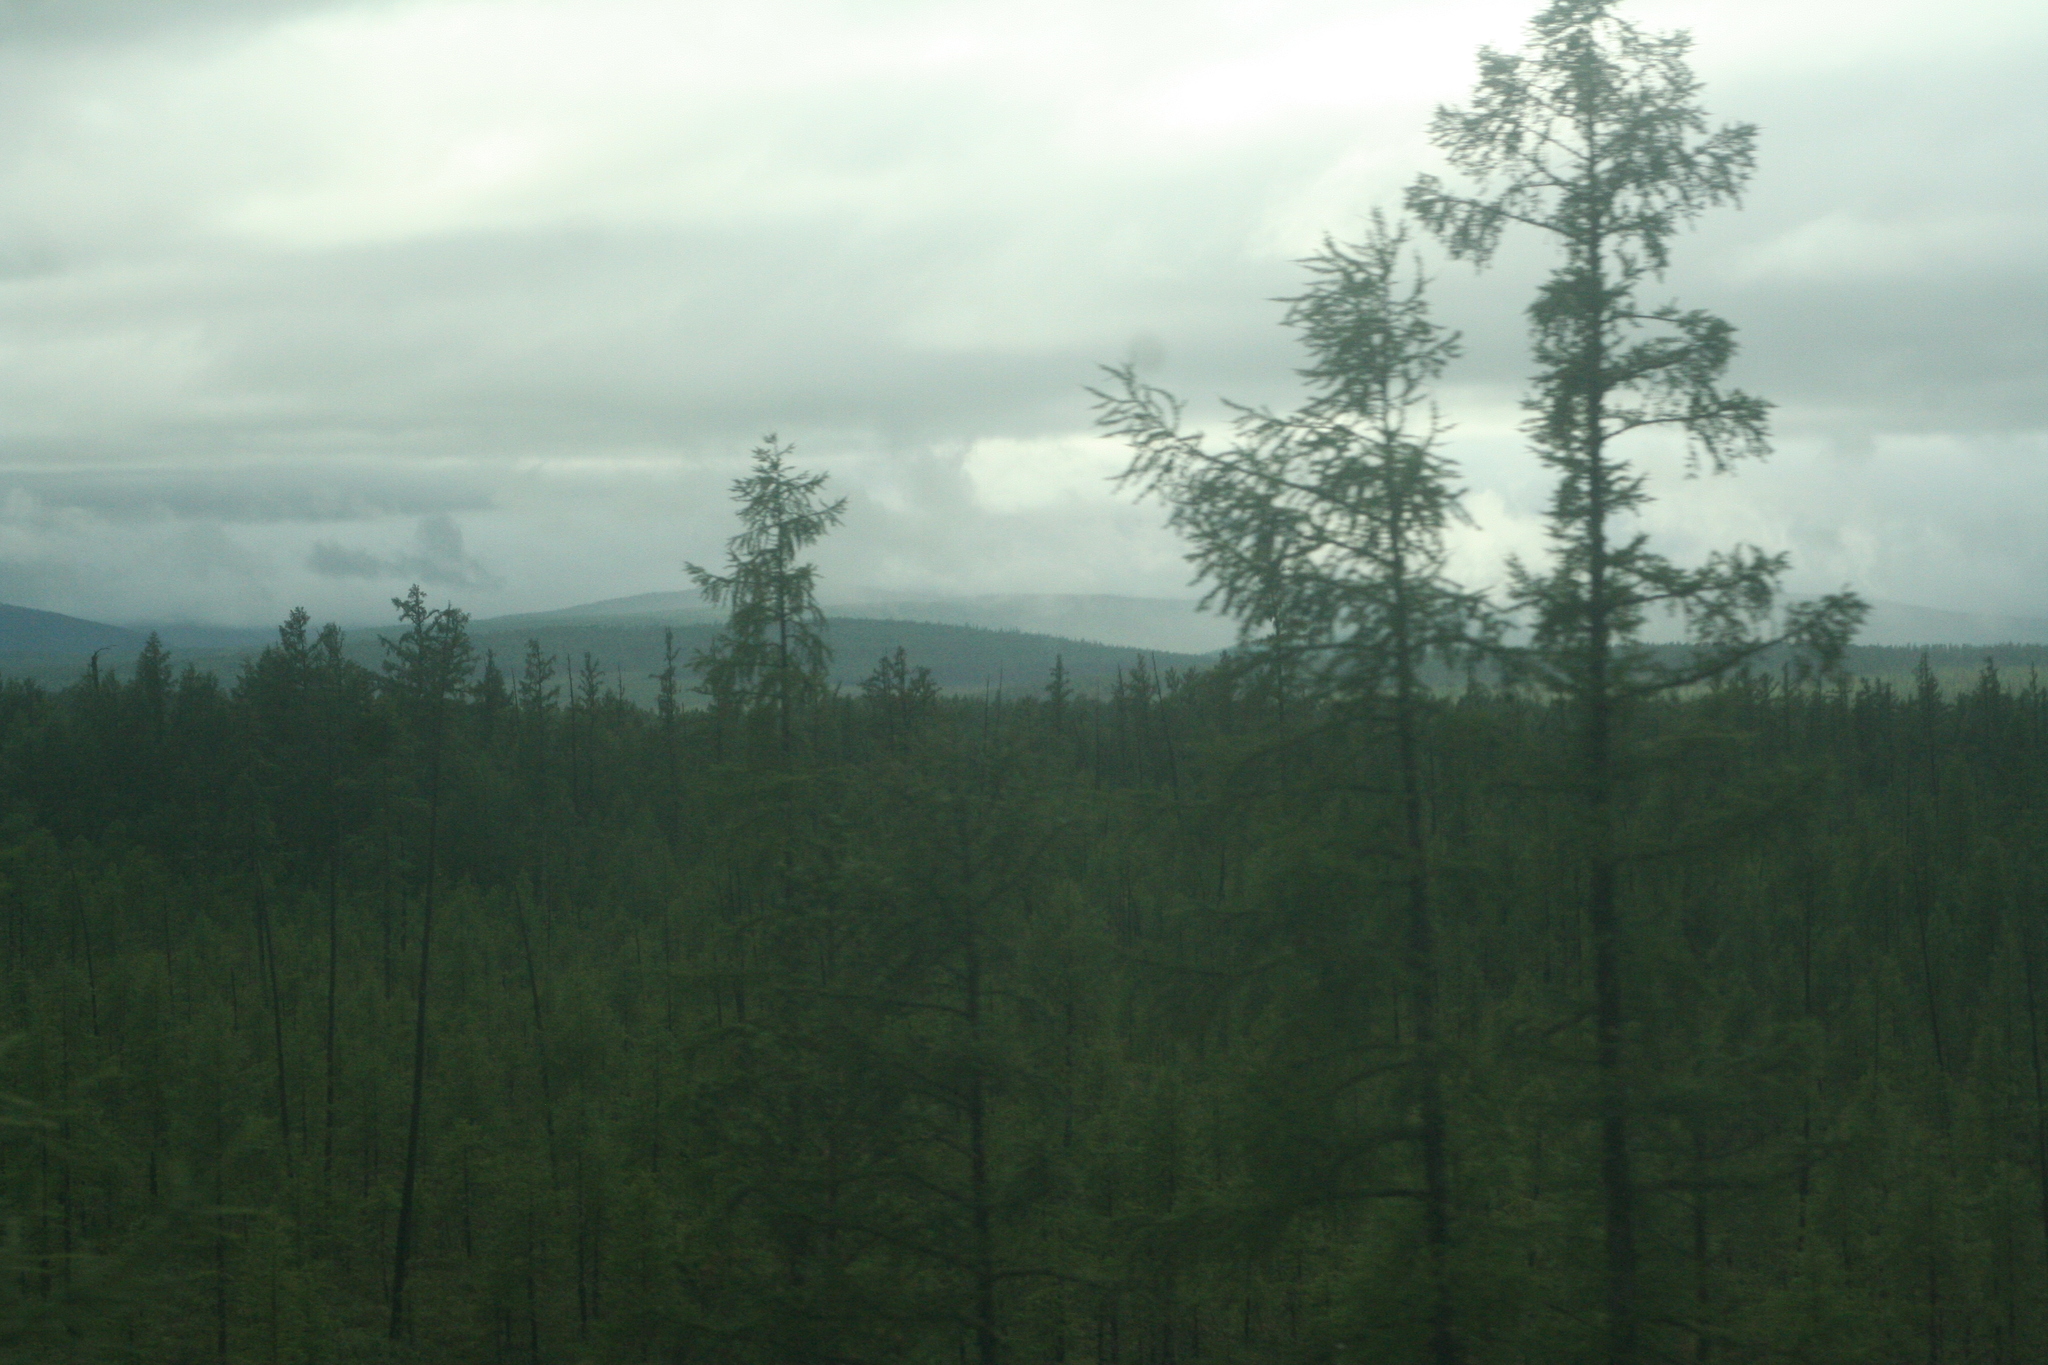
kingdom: Plantae
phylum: Tracheophyta
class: Pinopsida
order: Pinales
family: Pinaceae
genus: Larix
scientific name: Larix gmelinii
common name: Dahurian larch
